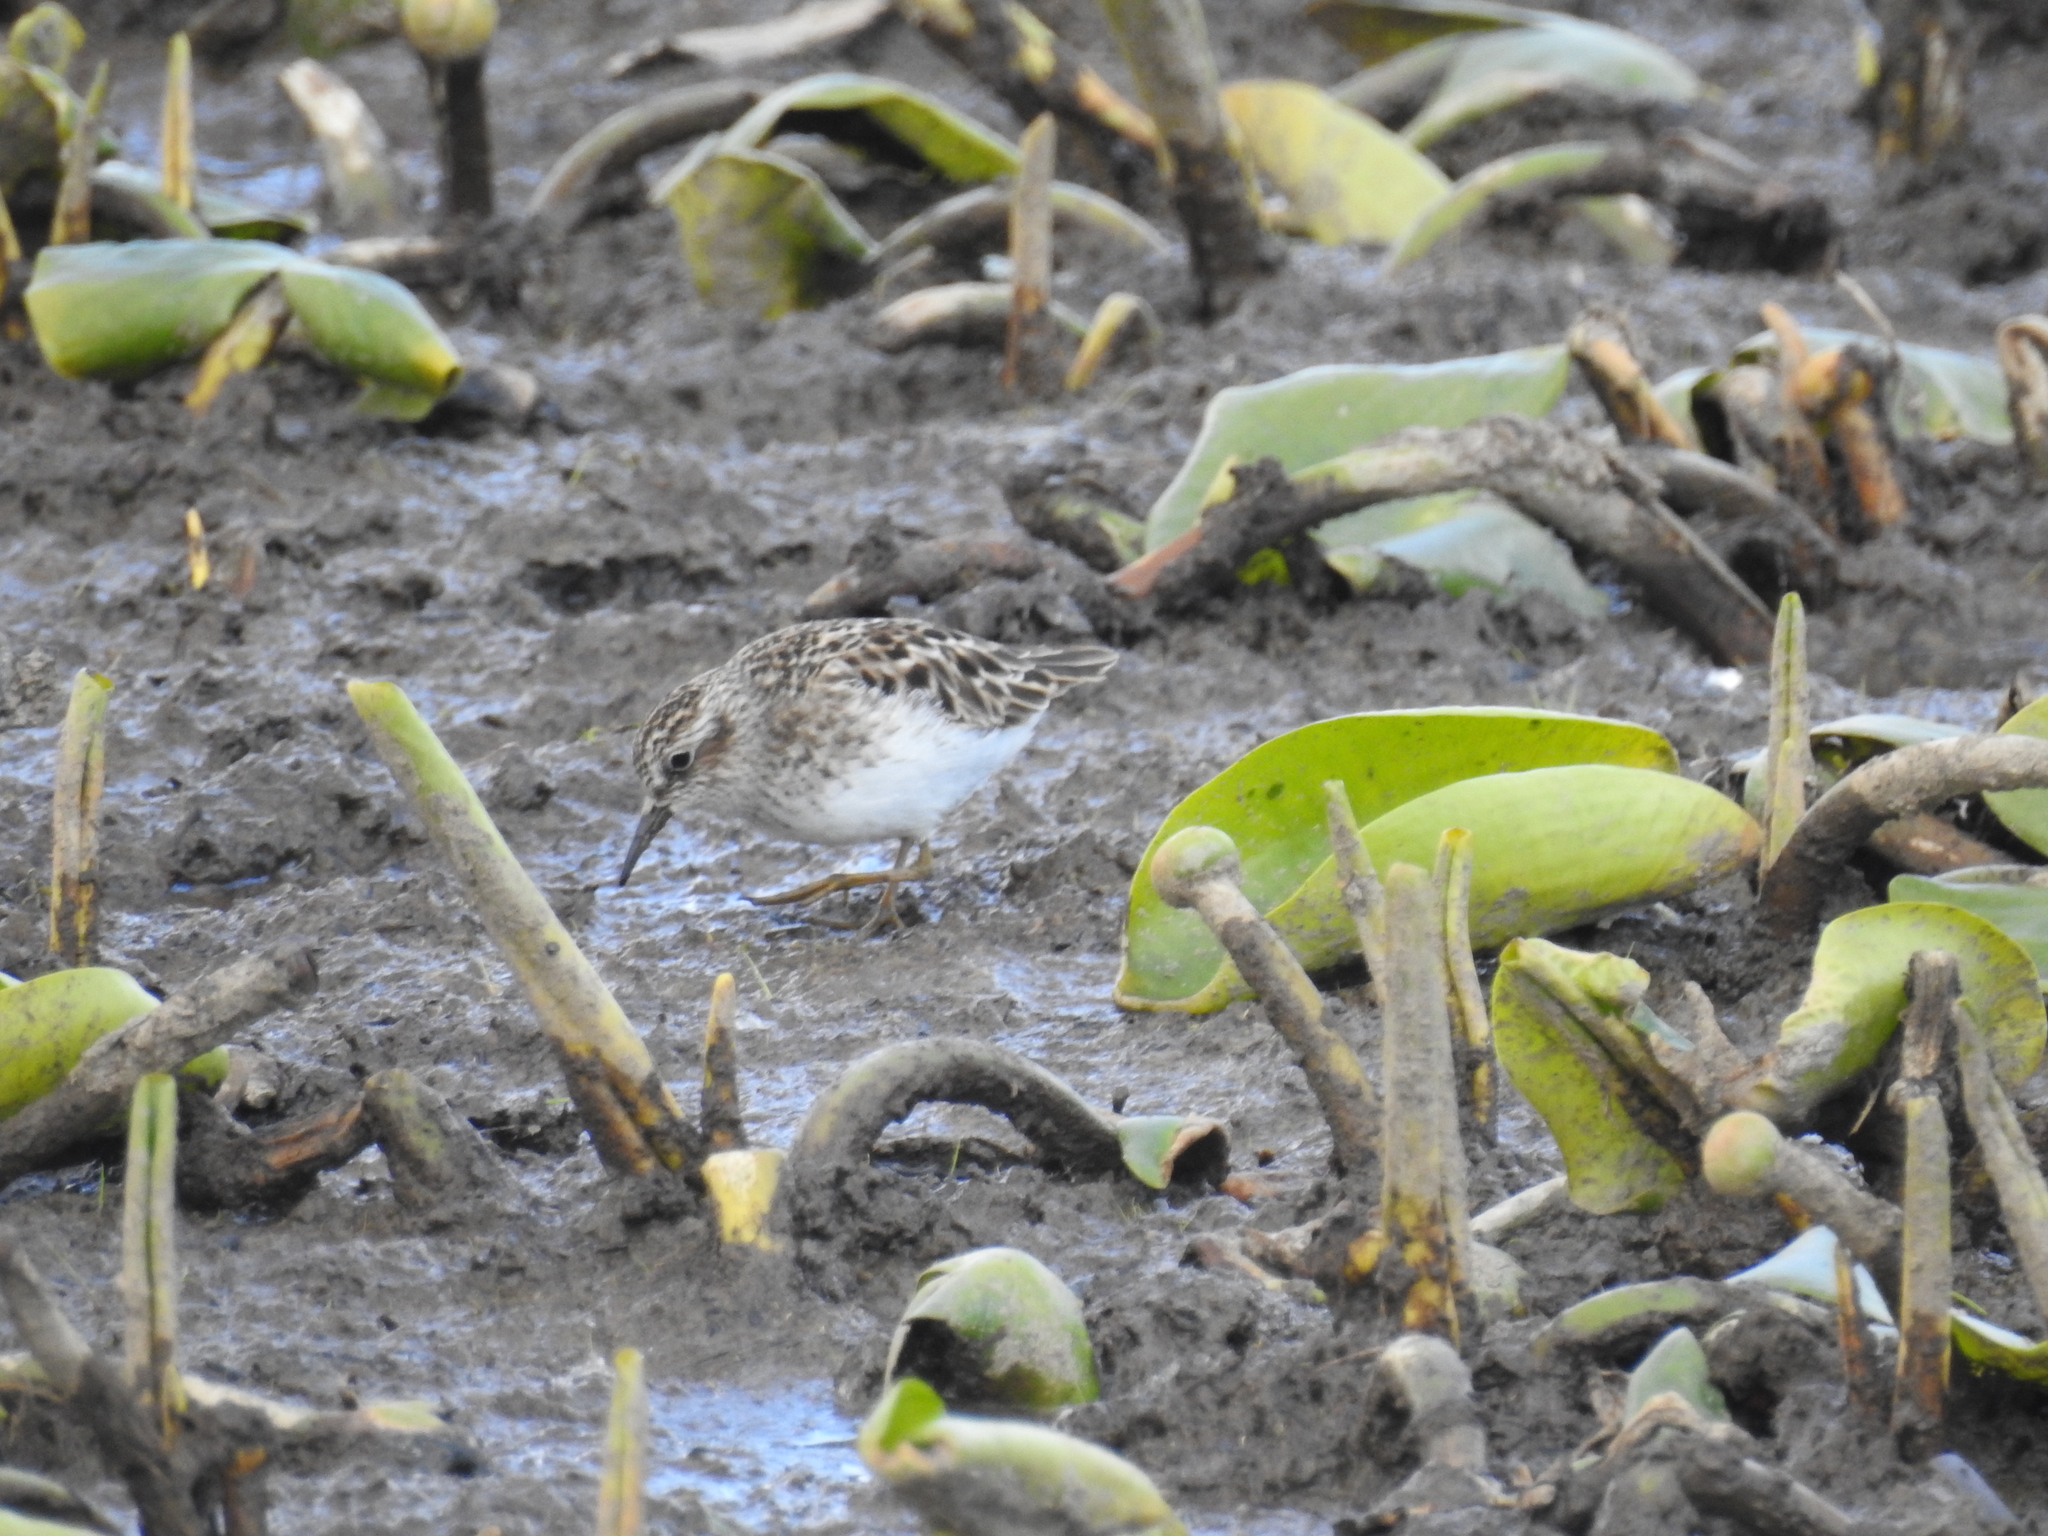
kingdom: Animalia
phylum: Chordata
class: Aves
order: Charadriiformes
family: Scolopacidae
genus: Calidris
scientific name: Calidris minutilla
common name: Least sandpiper
